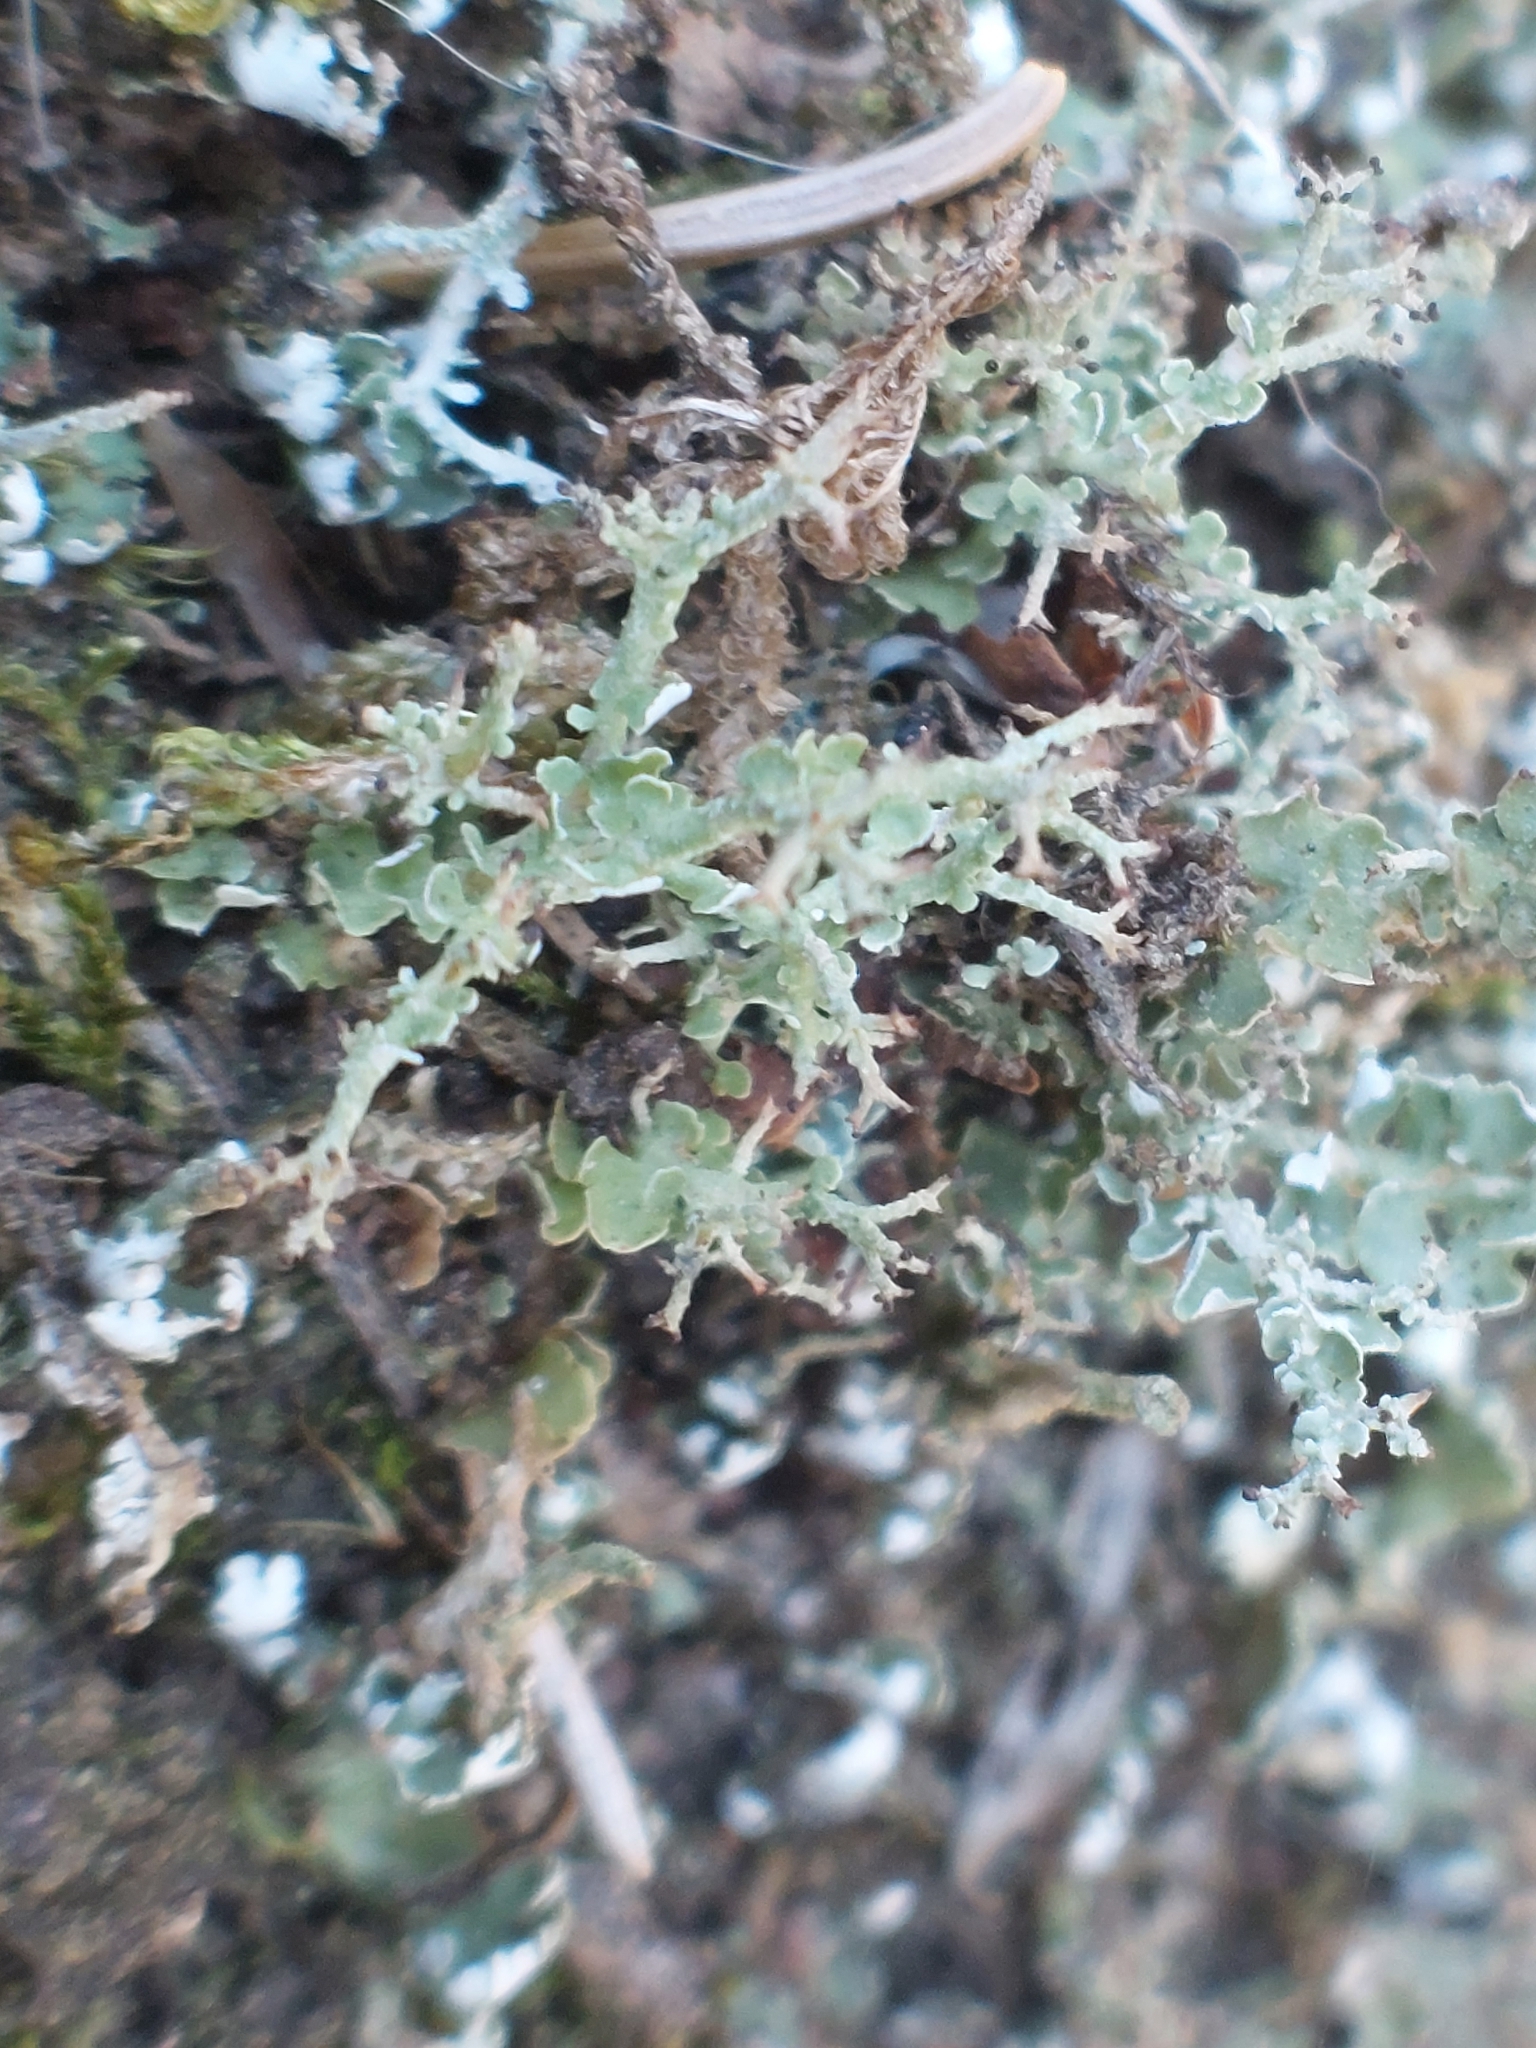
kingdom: Fungi
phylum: Ascomycota
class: Lecanoromycetes
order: Lecanorales
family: Cladoniaceae
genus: Cladonia
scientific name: Cladonia furcata
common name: Many-forked cladonia
